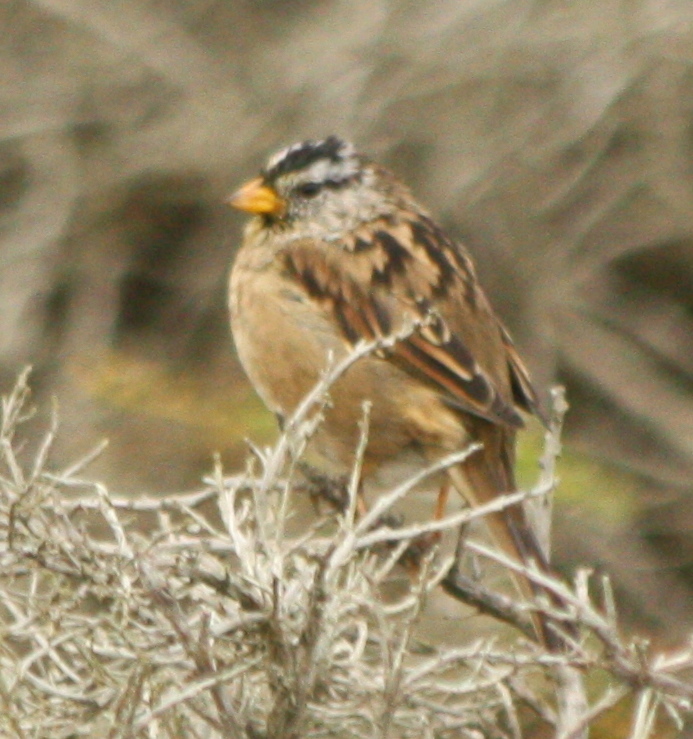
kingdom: Animalia
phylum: Chordata
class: Aves
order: Passeriformes
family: Passerellidae
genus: Zonotrichia
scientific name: Zonotrichia leucophrys
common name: White-crowned sparrow
